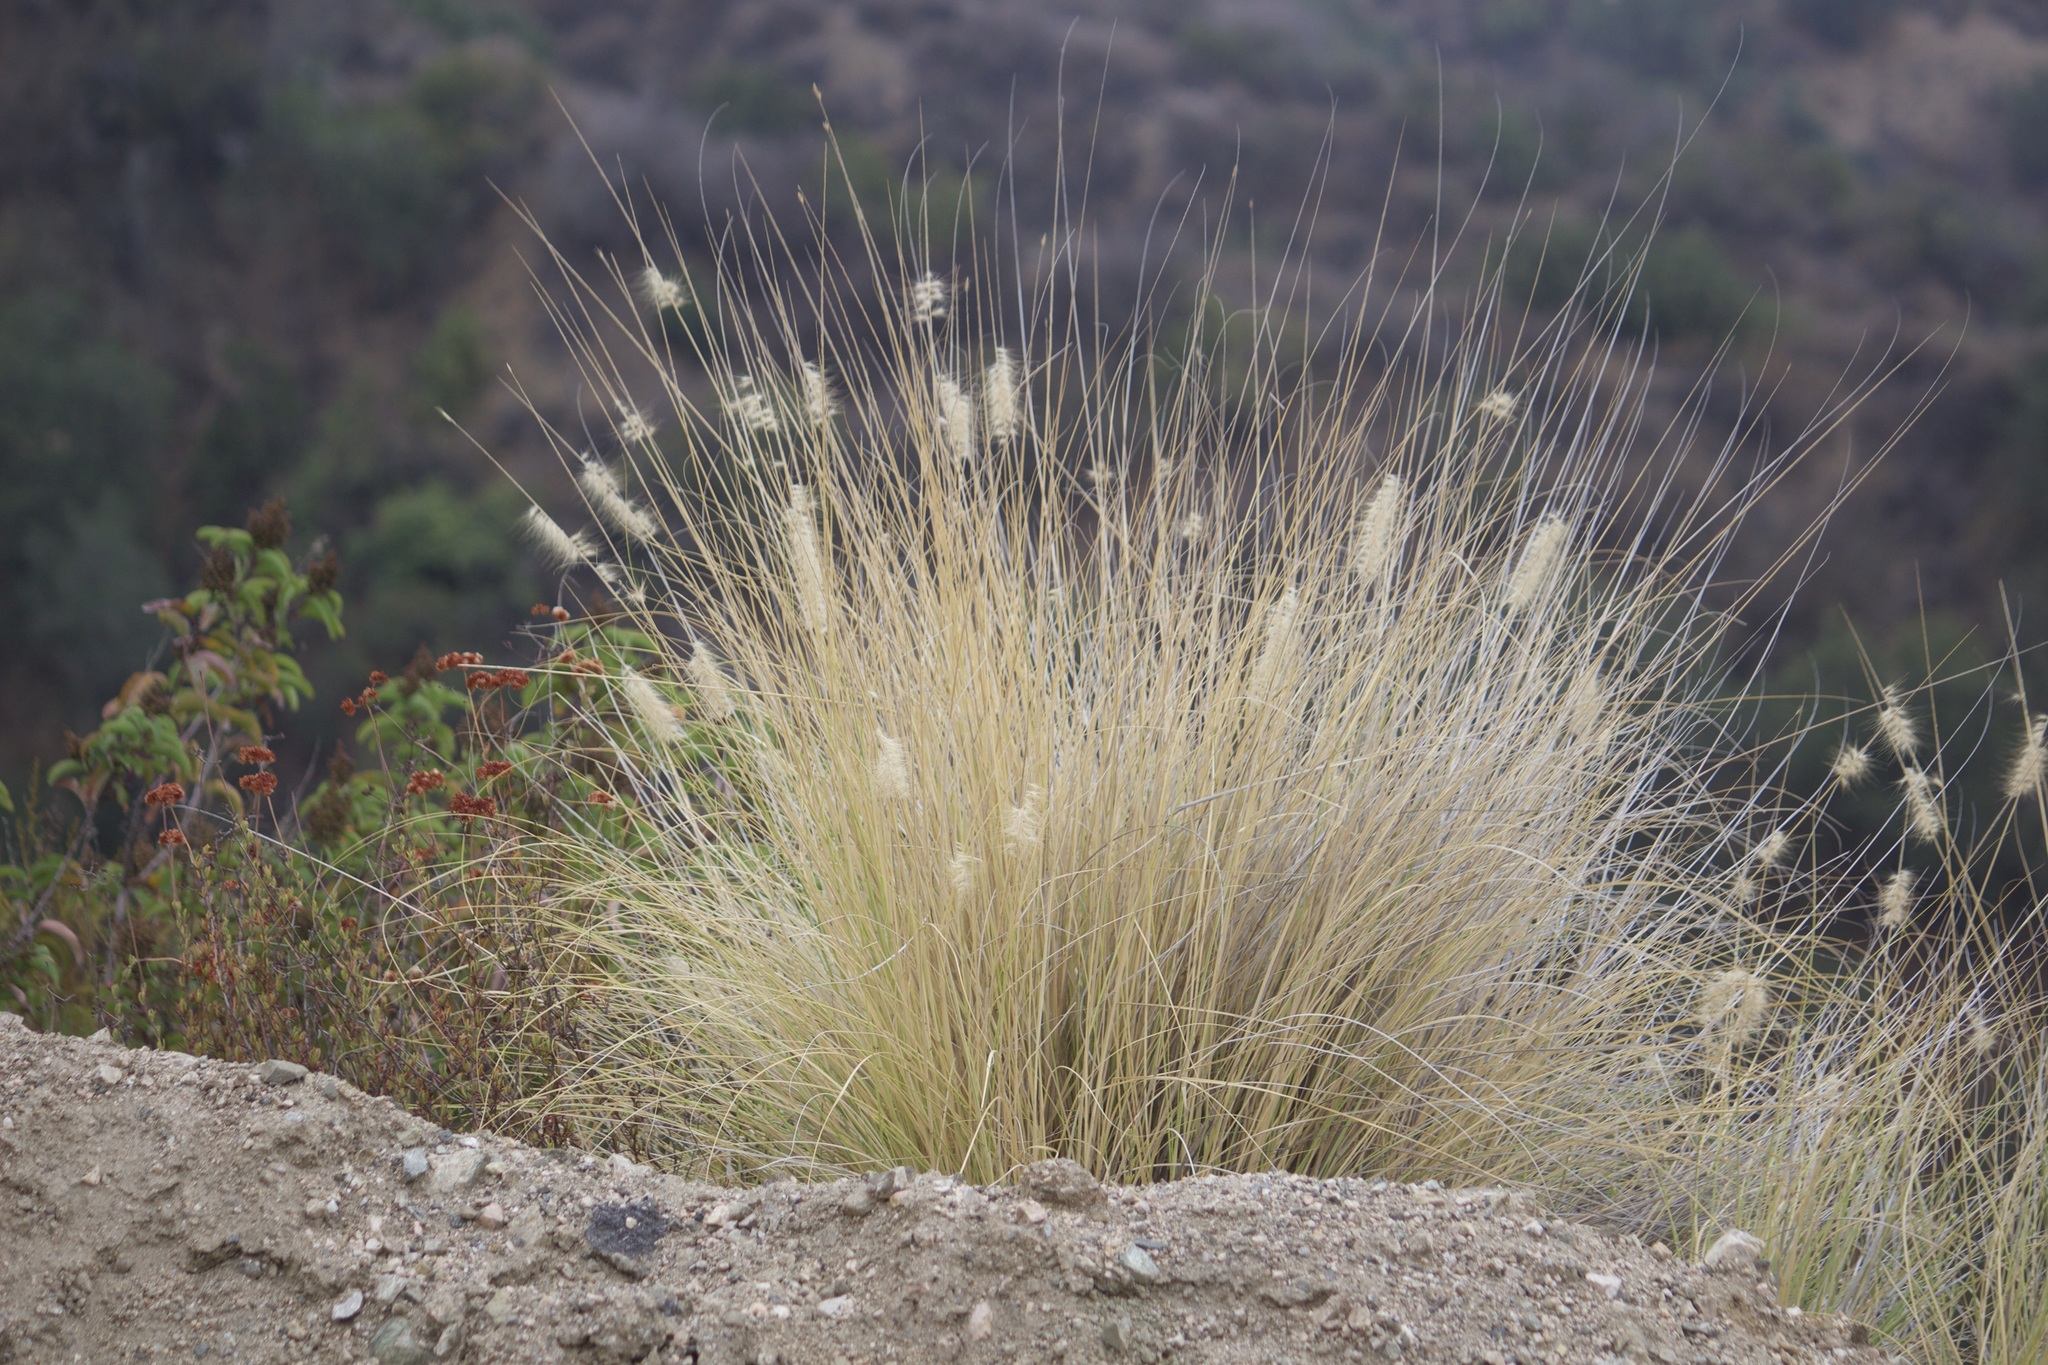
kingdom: Plantae
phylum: Tracheophyta
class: Liliopsida
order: Poales
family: Poaceae
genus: Cenchrus
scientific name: Cenchrus setaceus
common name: Crimson fountaingrass
